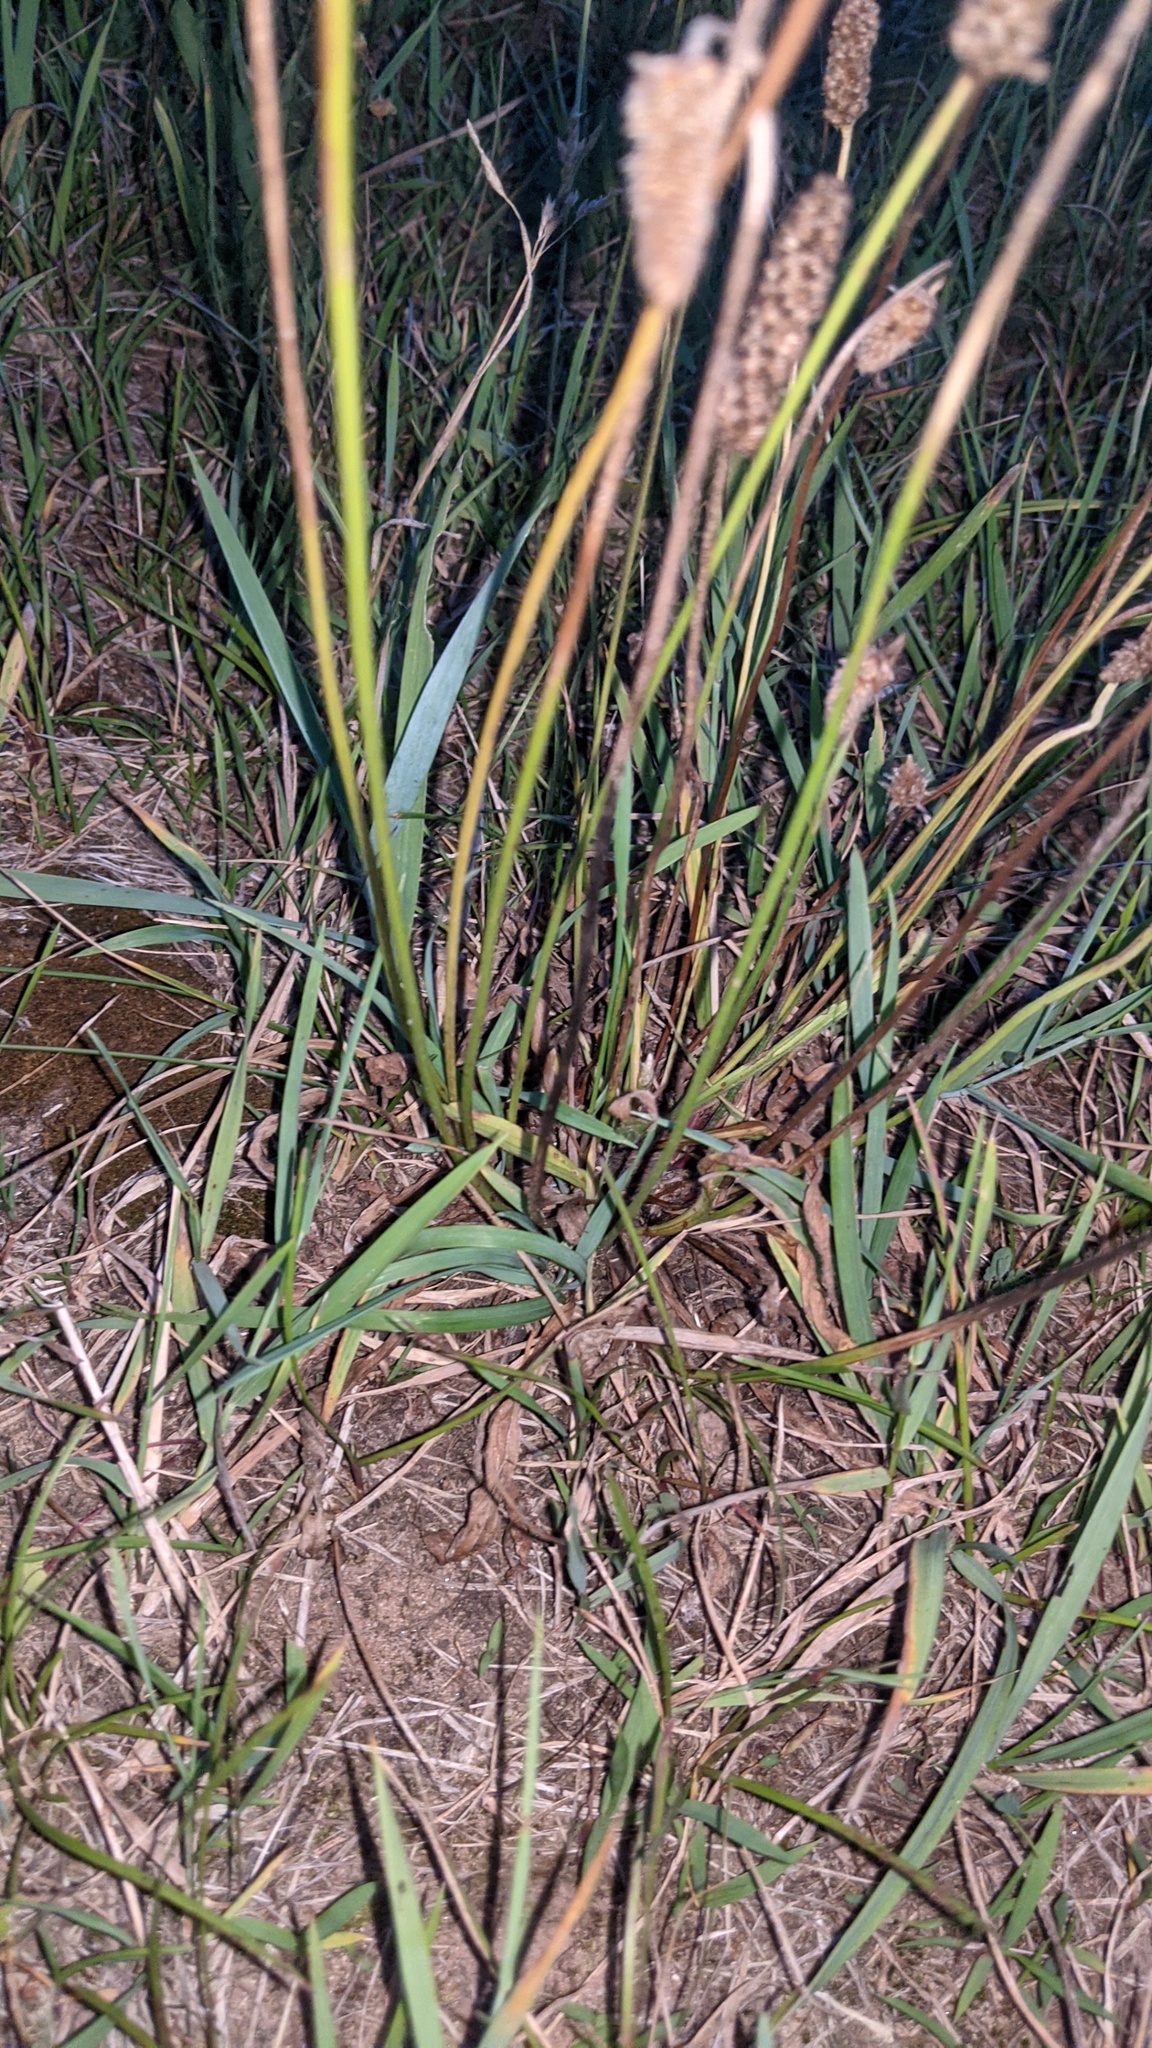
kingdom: Plantae
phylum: Tracheophyta
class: Magnoliopsida
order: Lamiales
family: Plantaginaceae
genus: Plantago
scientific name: Plantago lanceolata
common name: Ribwort plantain
